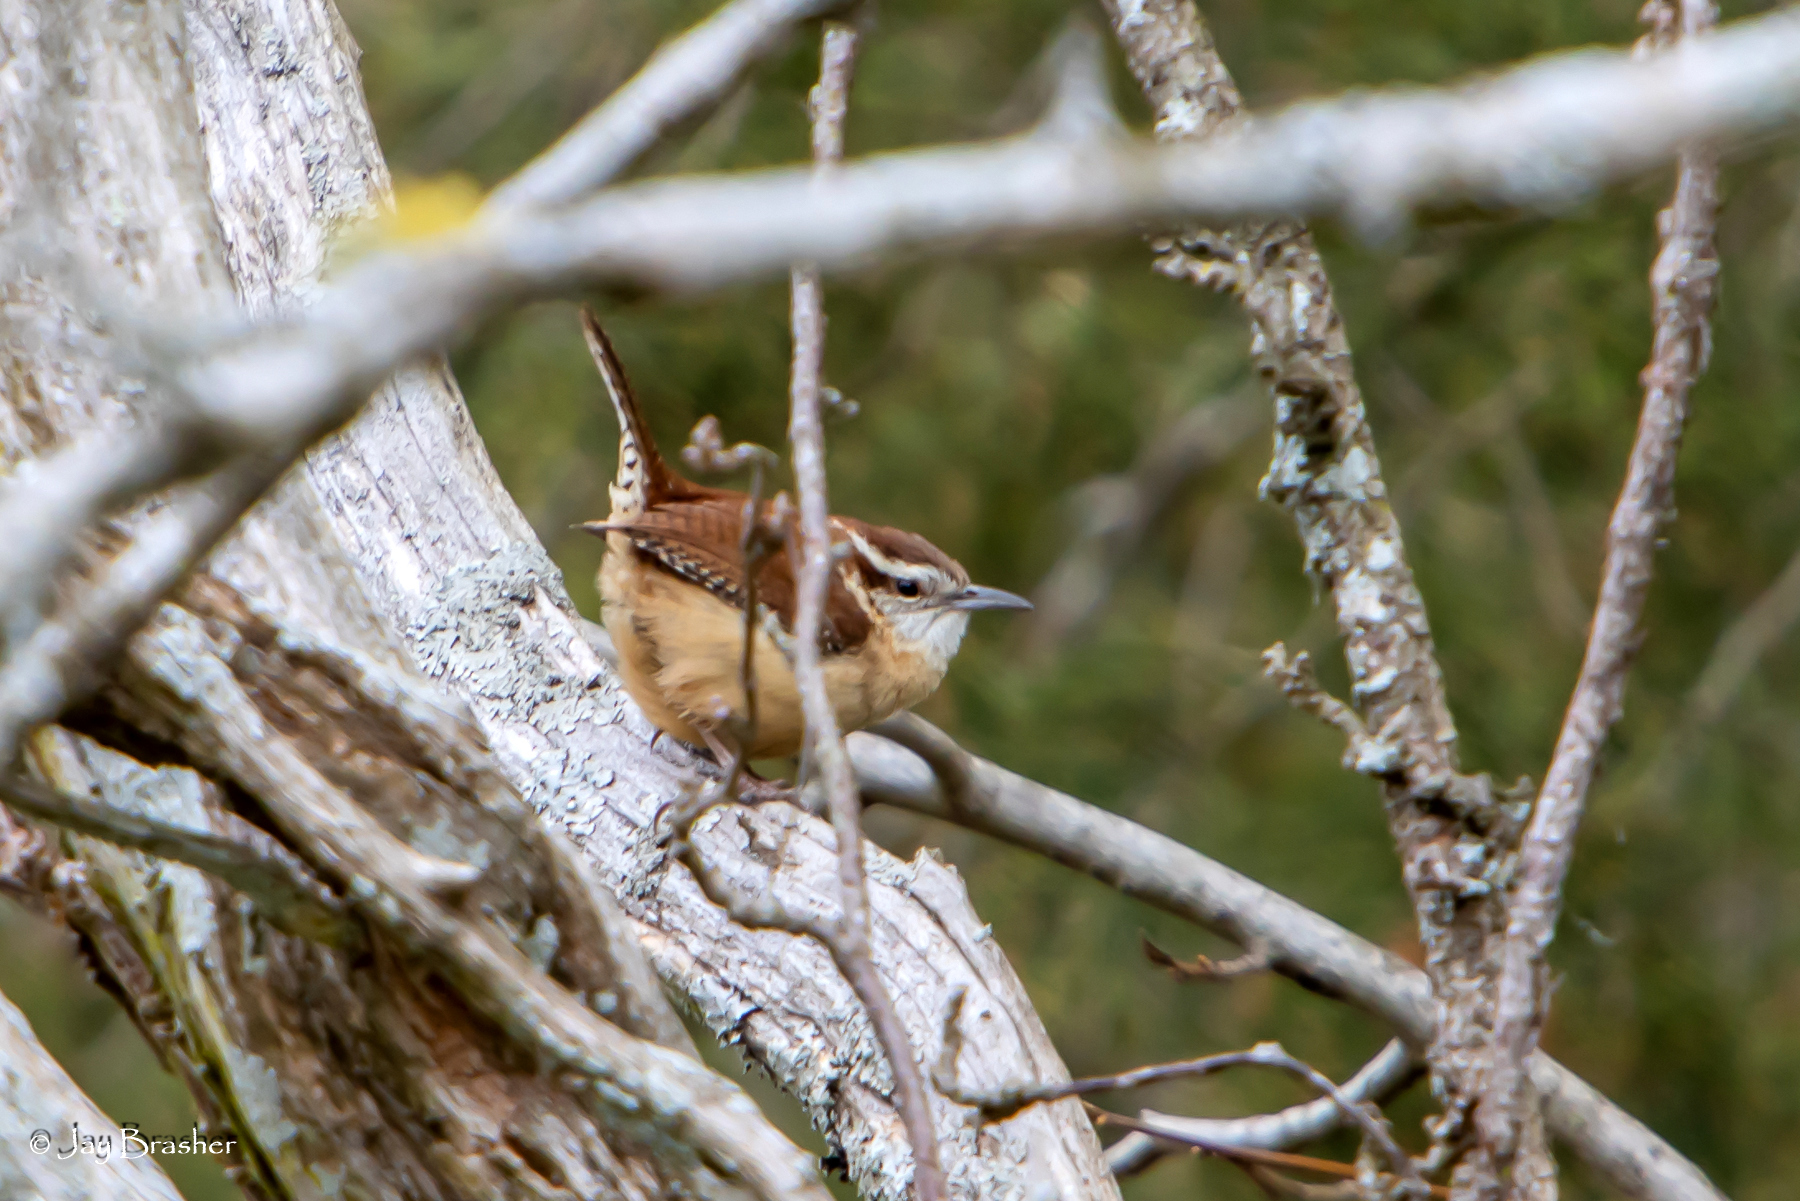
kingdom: Animalia
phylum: Chordata
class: Aves
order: Passeriformes
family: Troglodytidae
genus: Thryothorus
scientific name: Thryothorus ludovicianus
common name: Carolina wren
